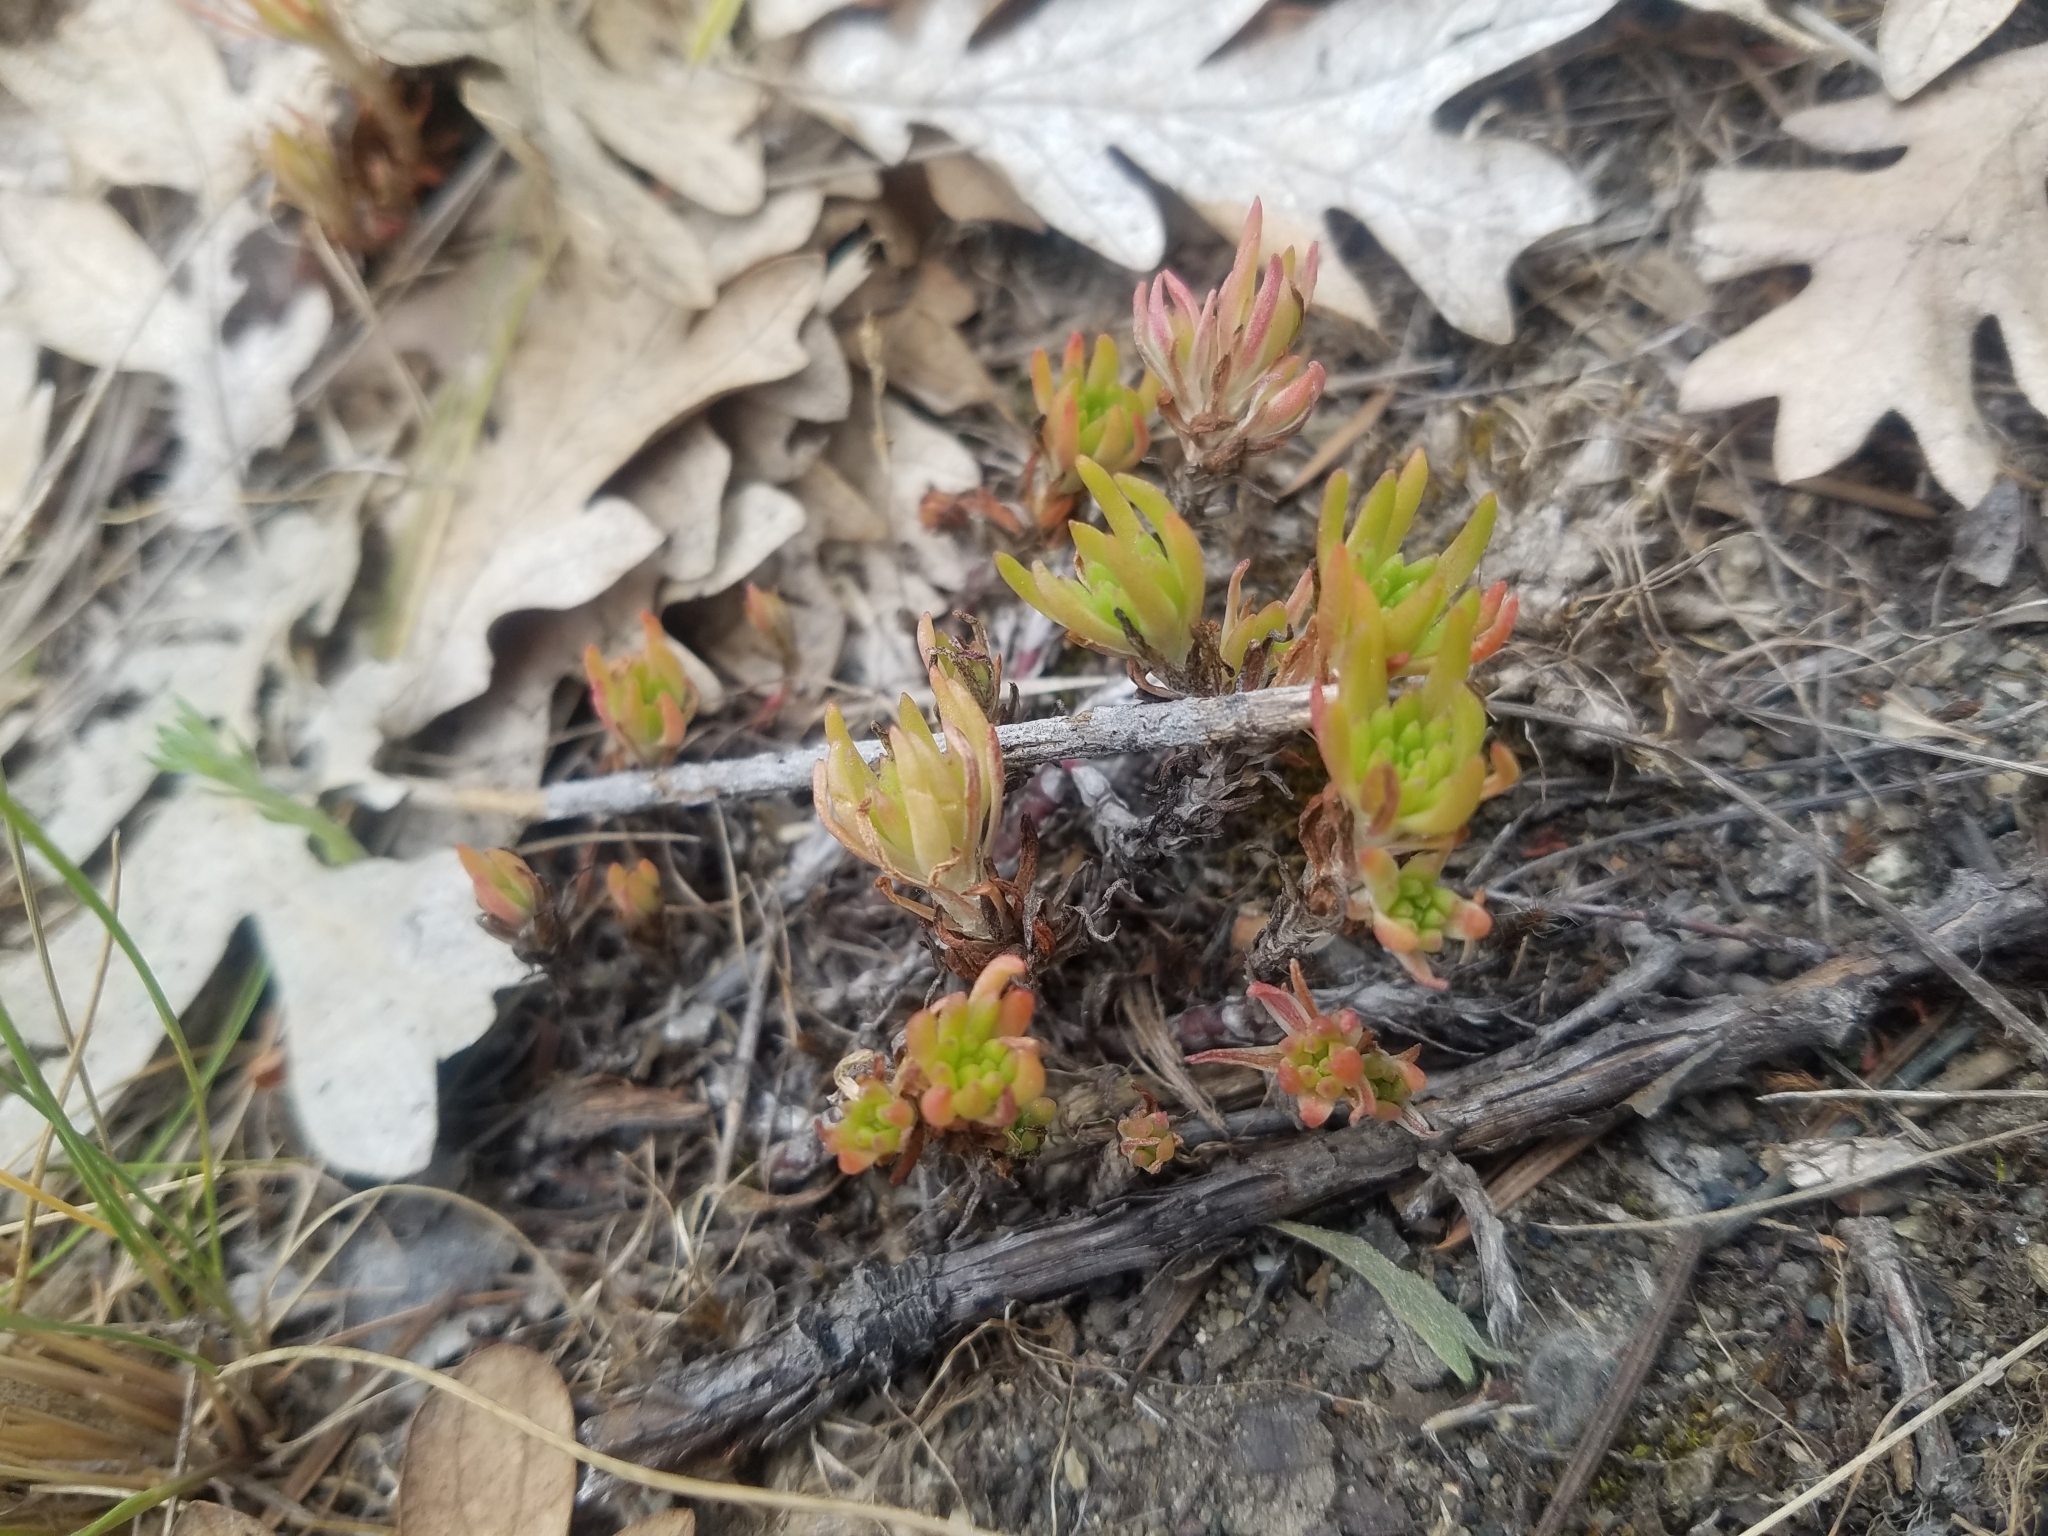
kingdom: Plantae
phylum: Tracheophyta
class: Magnoliopsida
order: Saxifragales
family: Crassulaceae
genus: Sedum
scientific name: Sedum stenopetalum
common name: Narrow-petaled stonecrop
